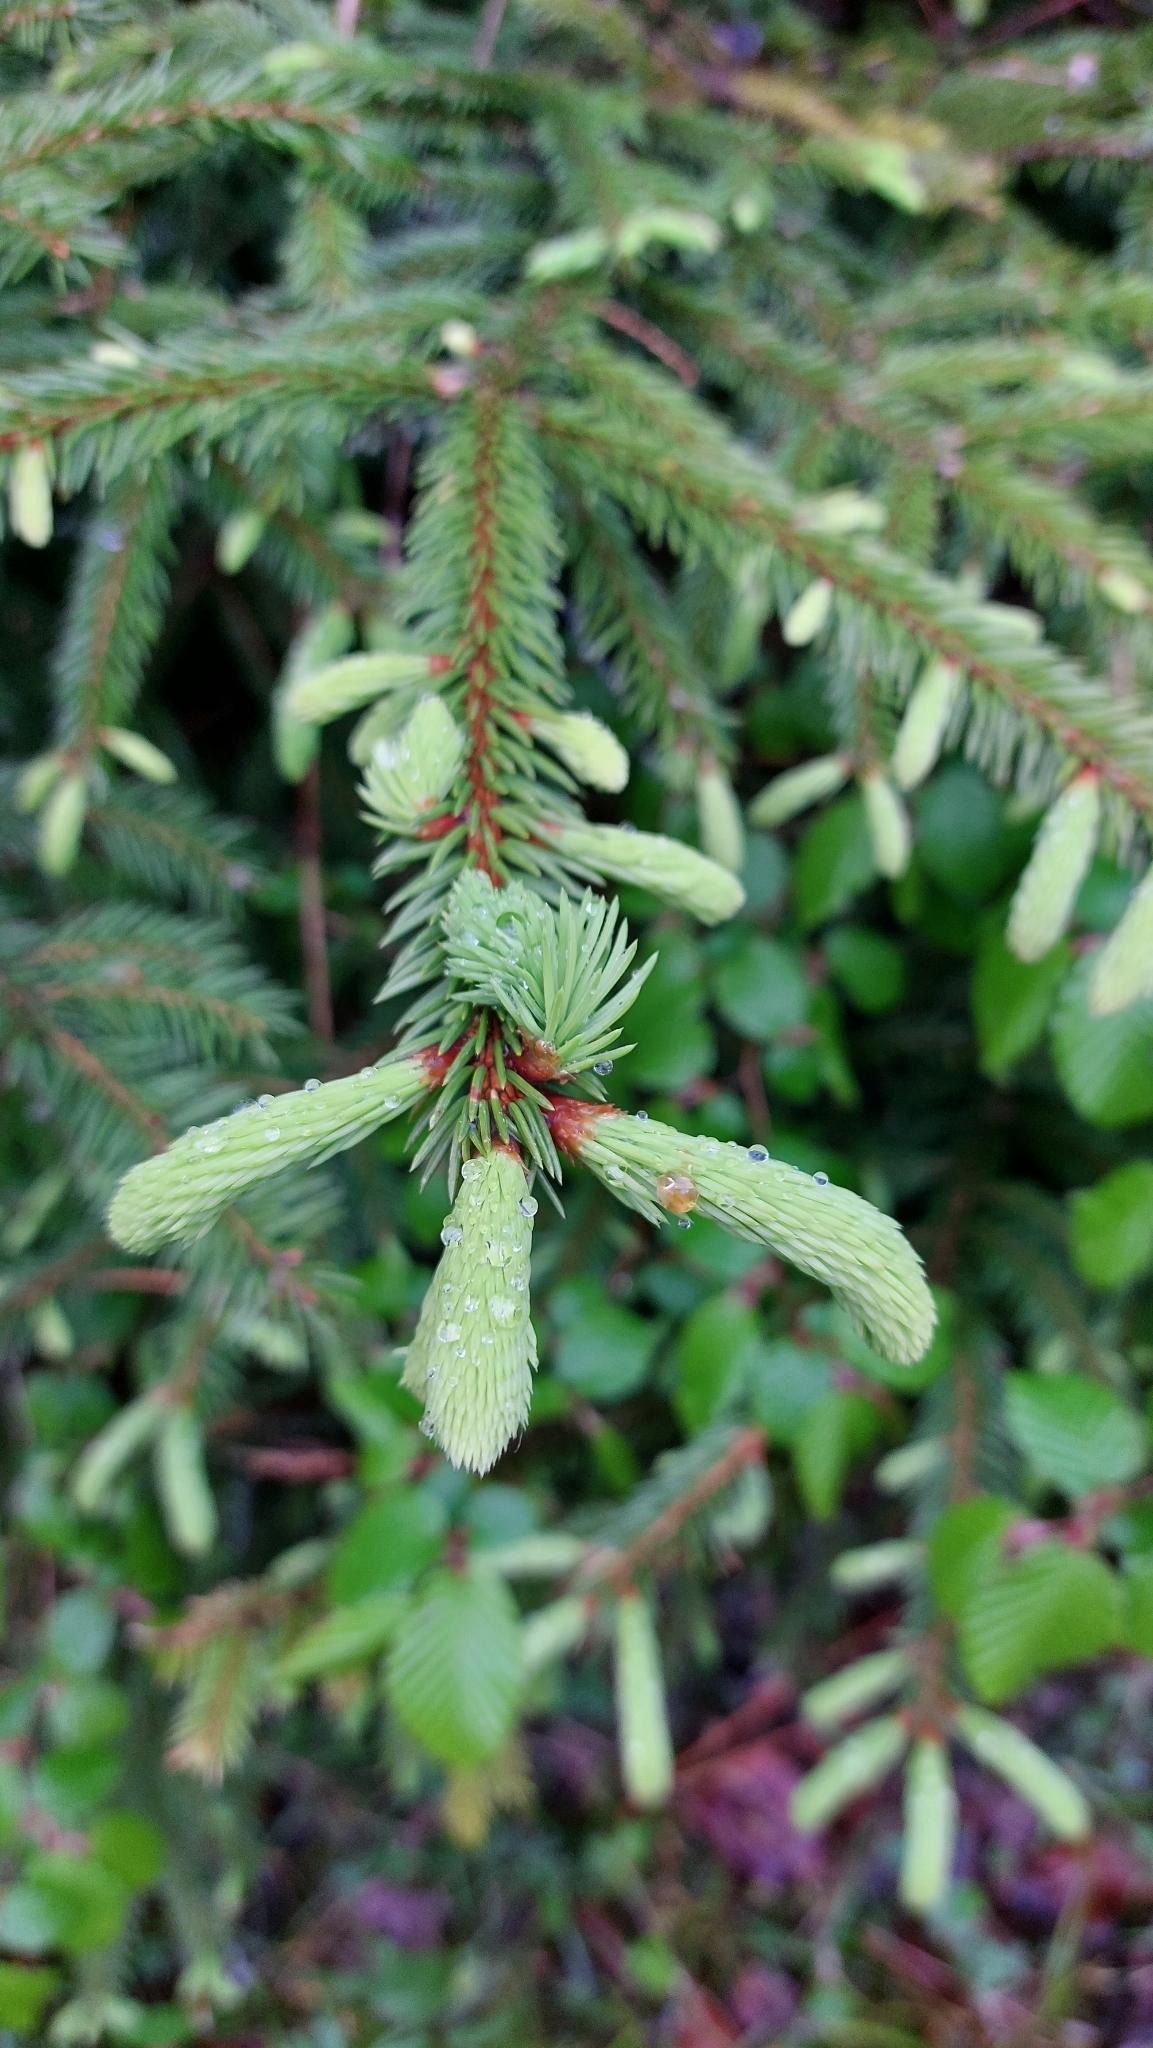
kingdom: Plantae
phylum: Tracheophyta
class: Pinopsida
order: Pinales
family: Pinaceae
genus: Picea
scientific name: Picea abies
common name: Norway spruce
